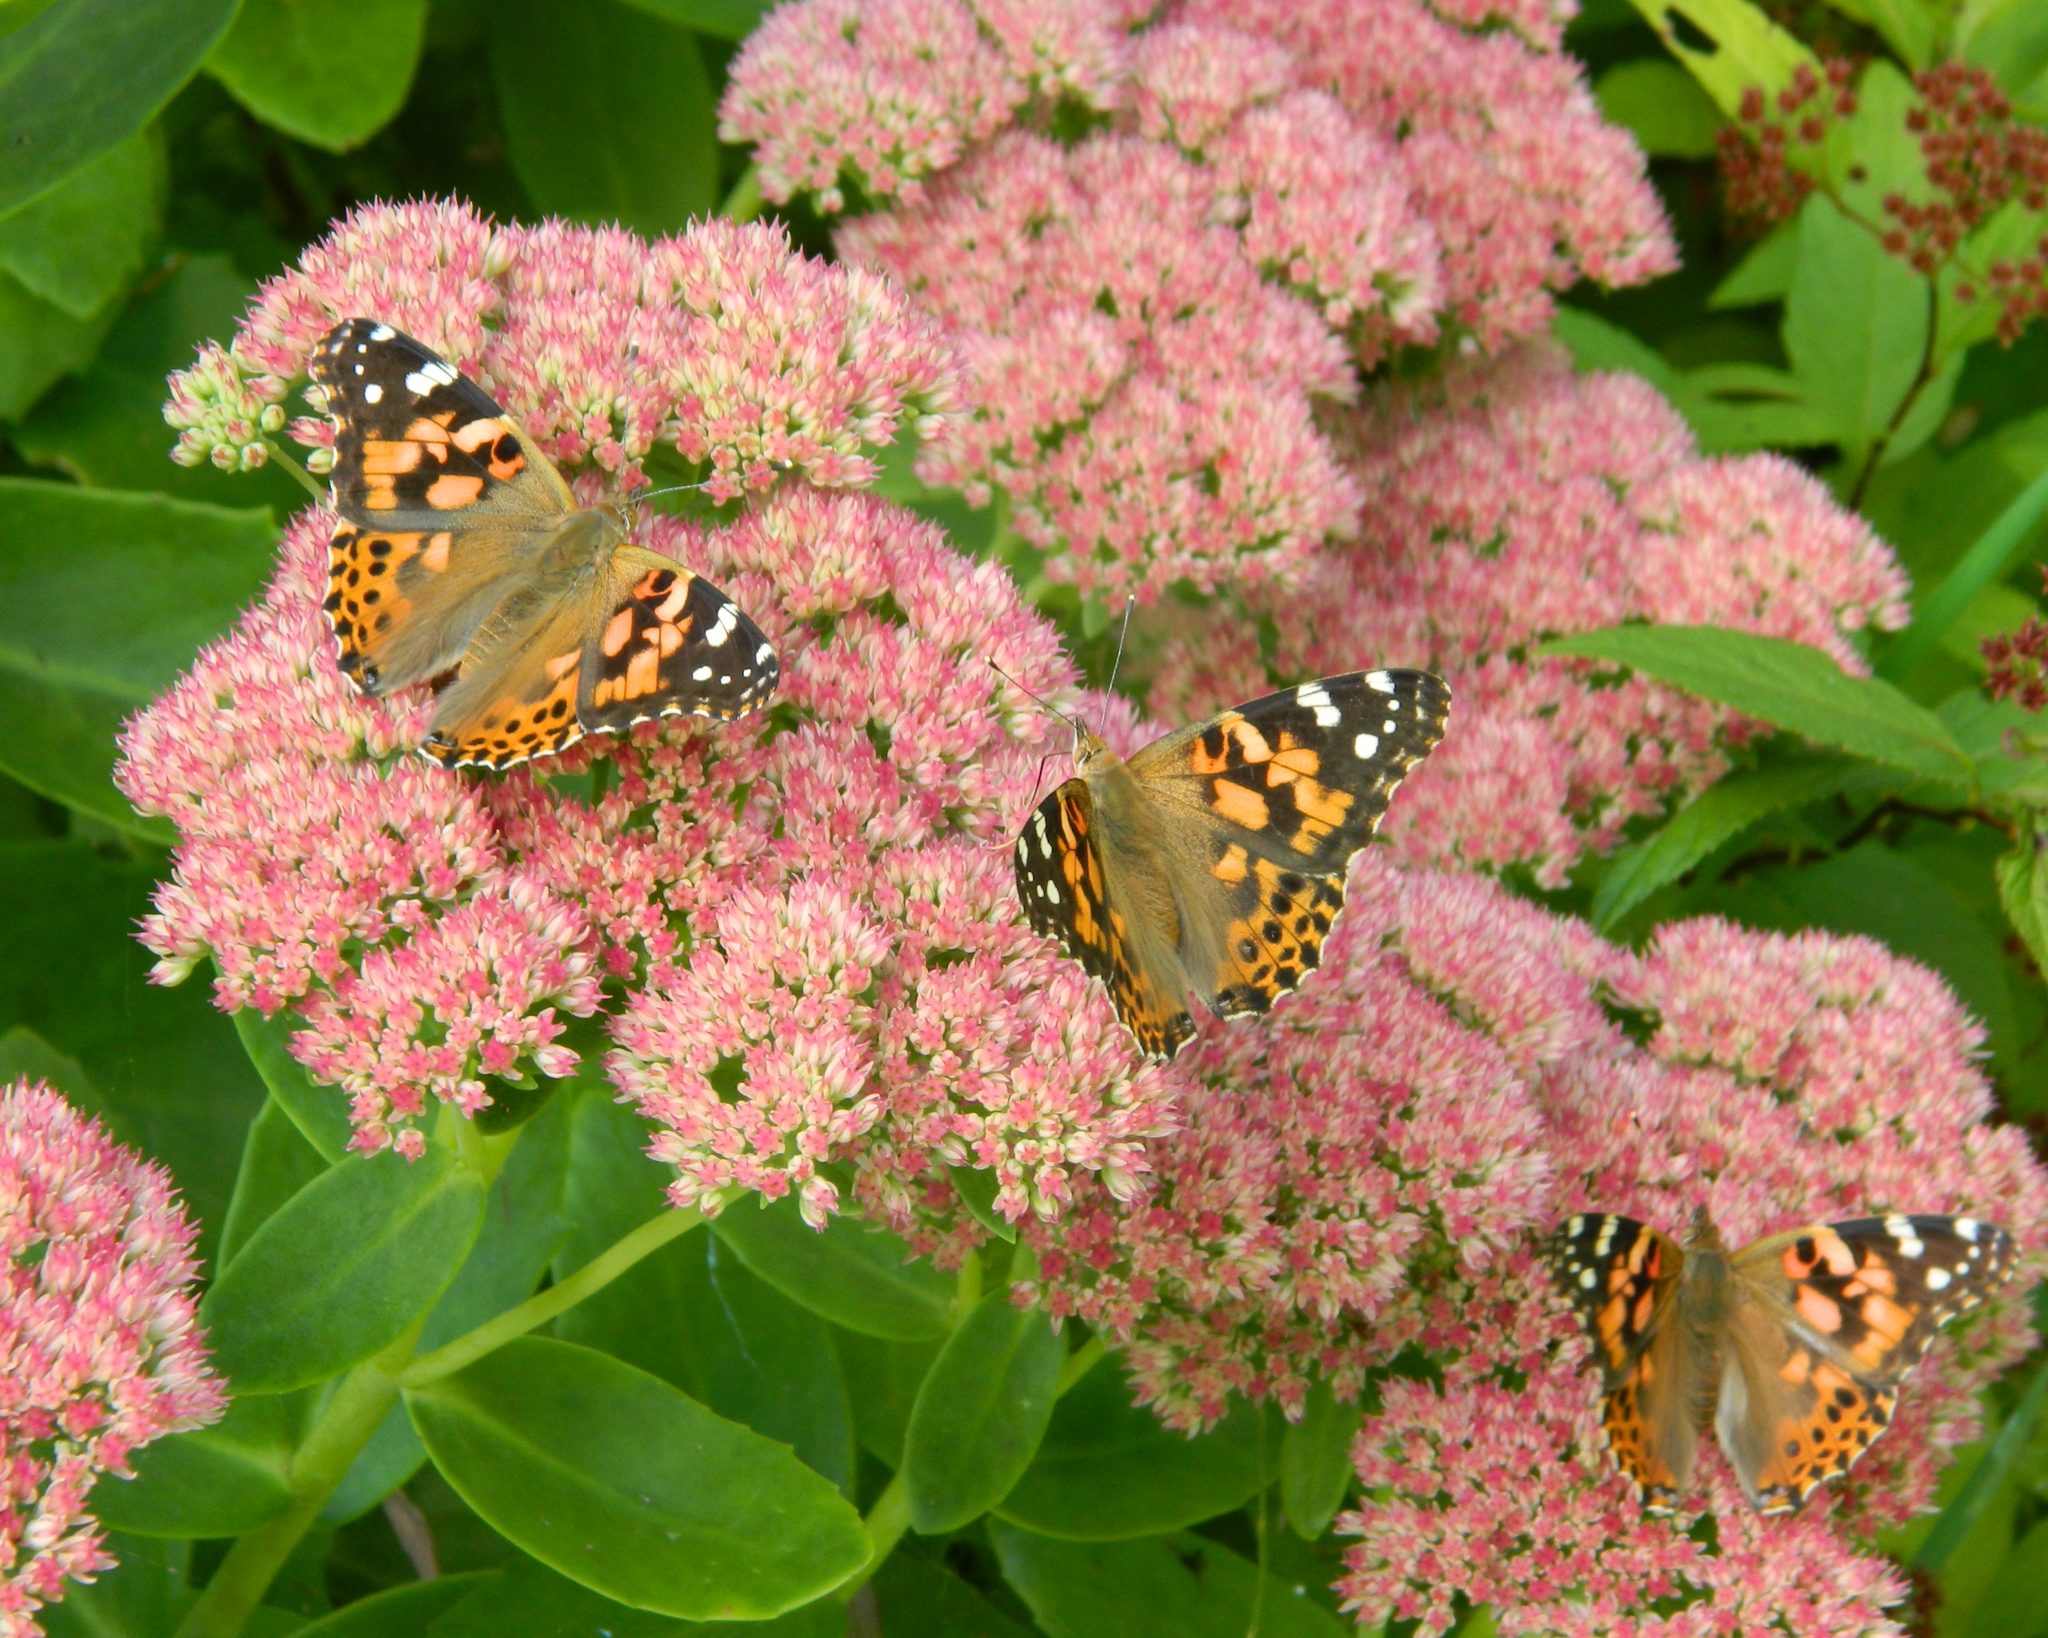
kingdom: Animalia
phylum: Arthropoda
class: Insecta
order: Lepidoptera
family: Nymphalidae
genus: Vanessa
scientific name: Vanessa cardui
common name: Painted lady
